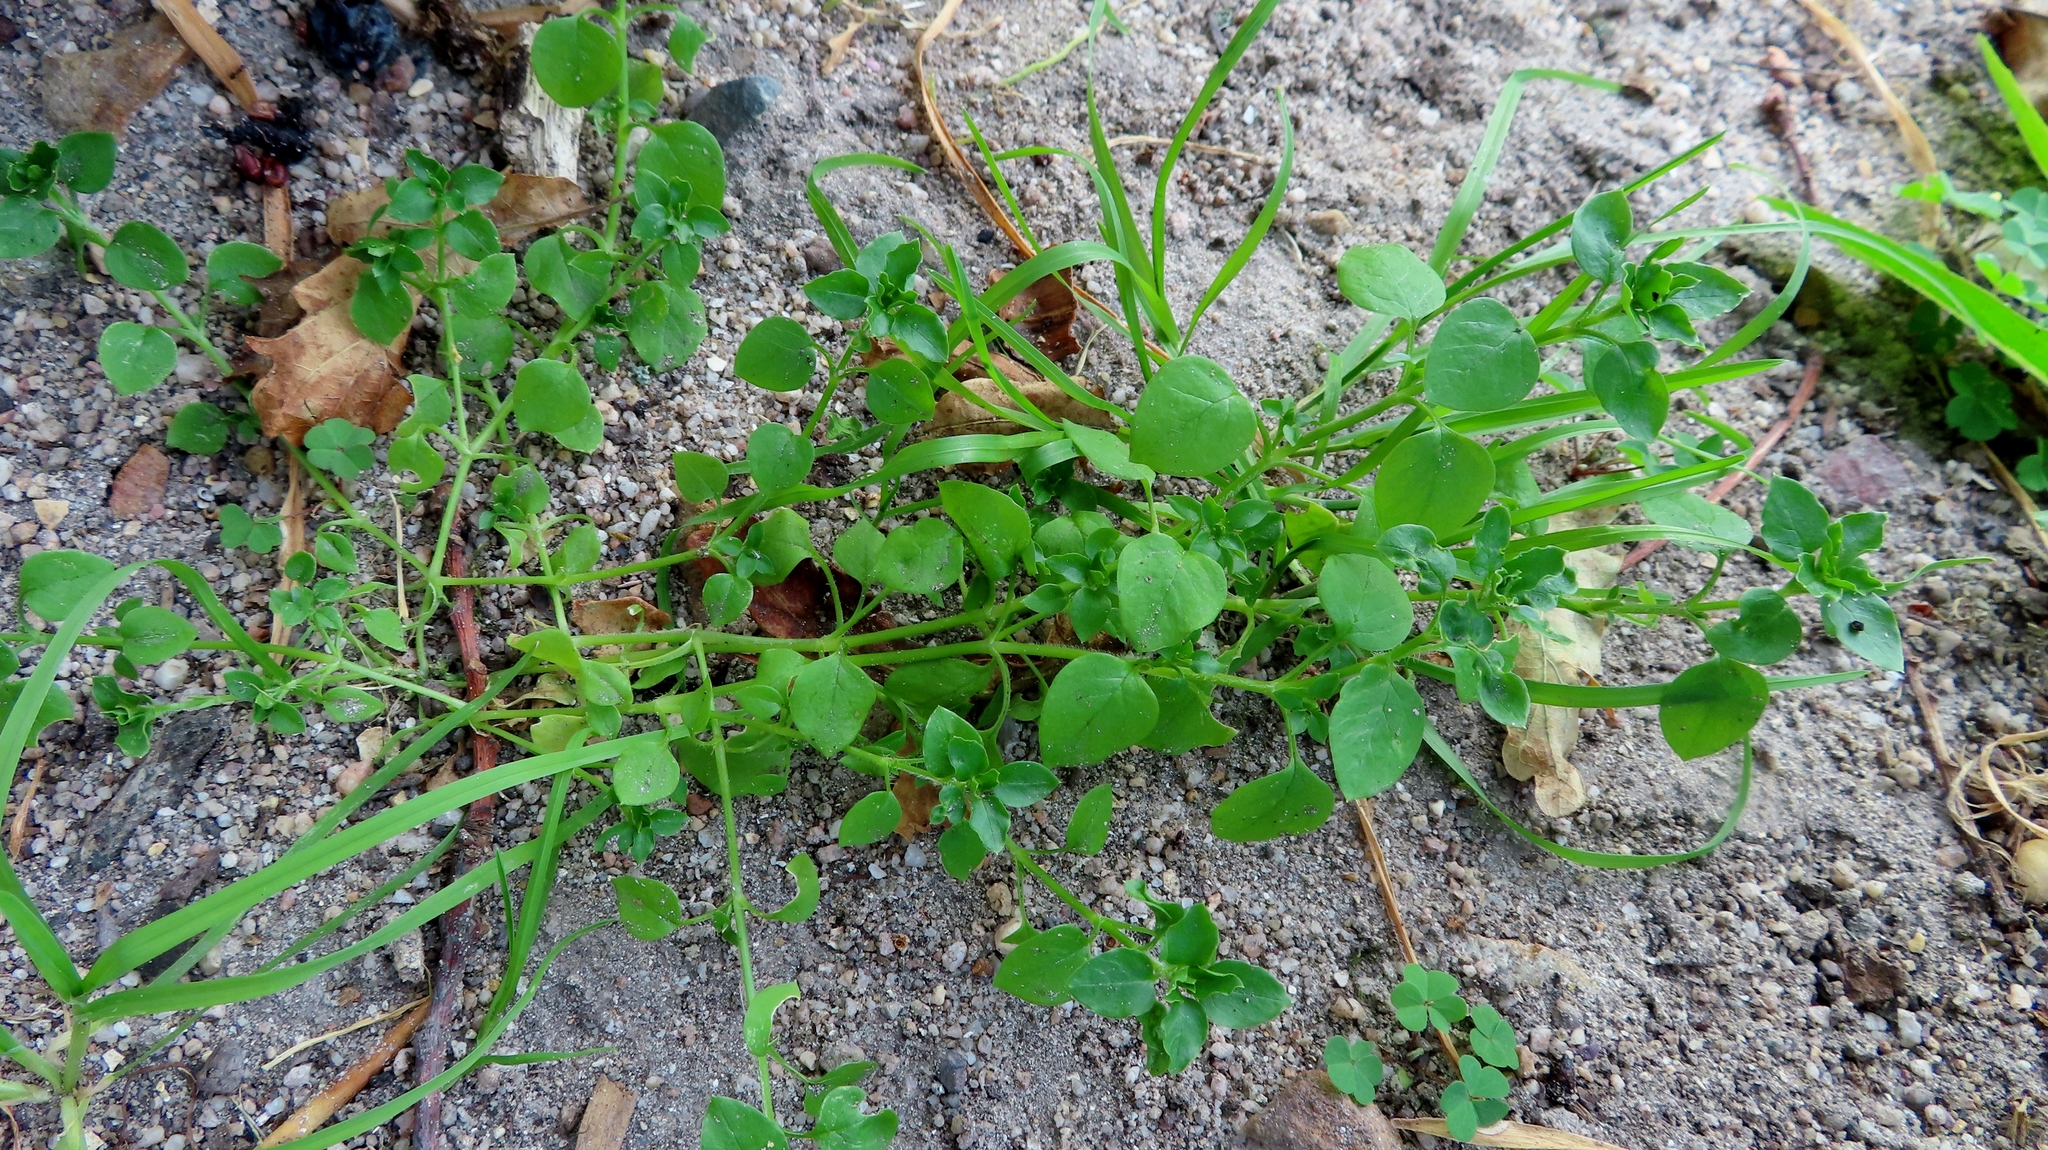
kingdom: Plantae
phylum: Tracheophyta
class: Magnoliopsida
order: Caryophyllales
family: Caryophyllaceae
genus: Stellaria
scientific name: Stellaria media
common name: Common chickweed
